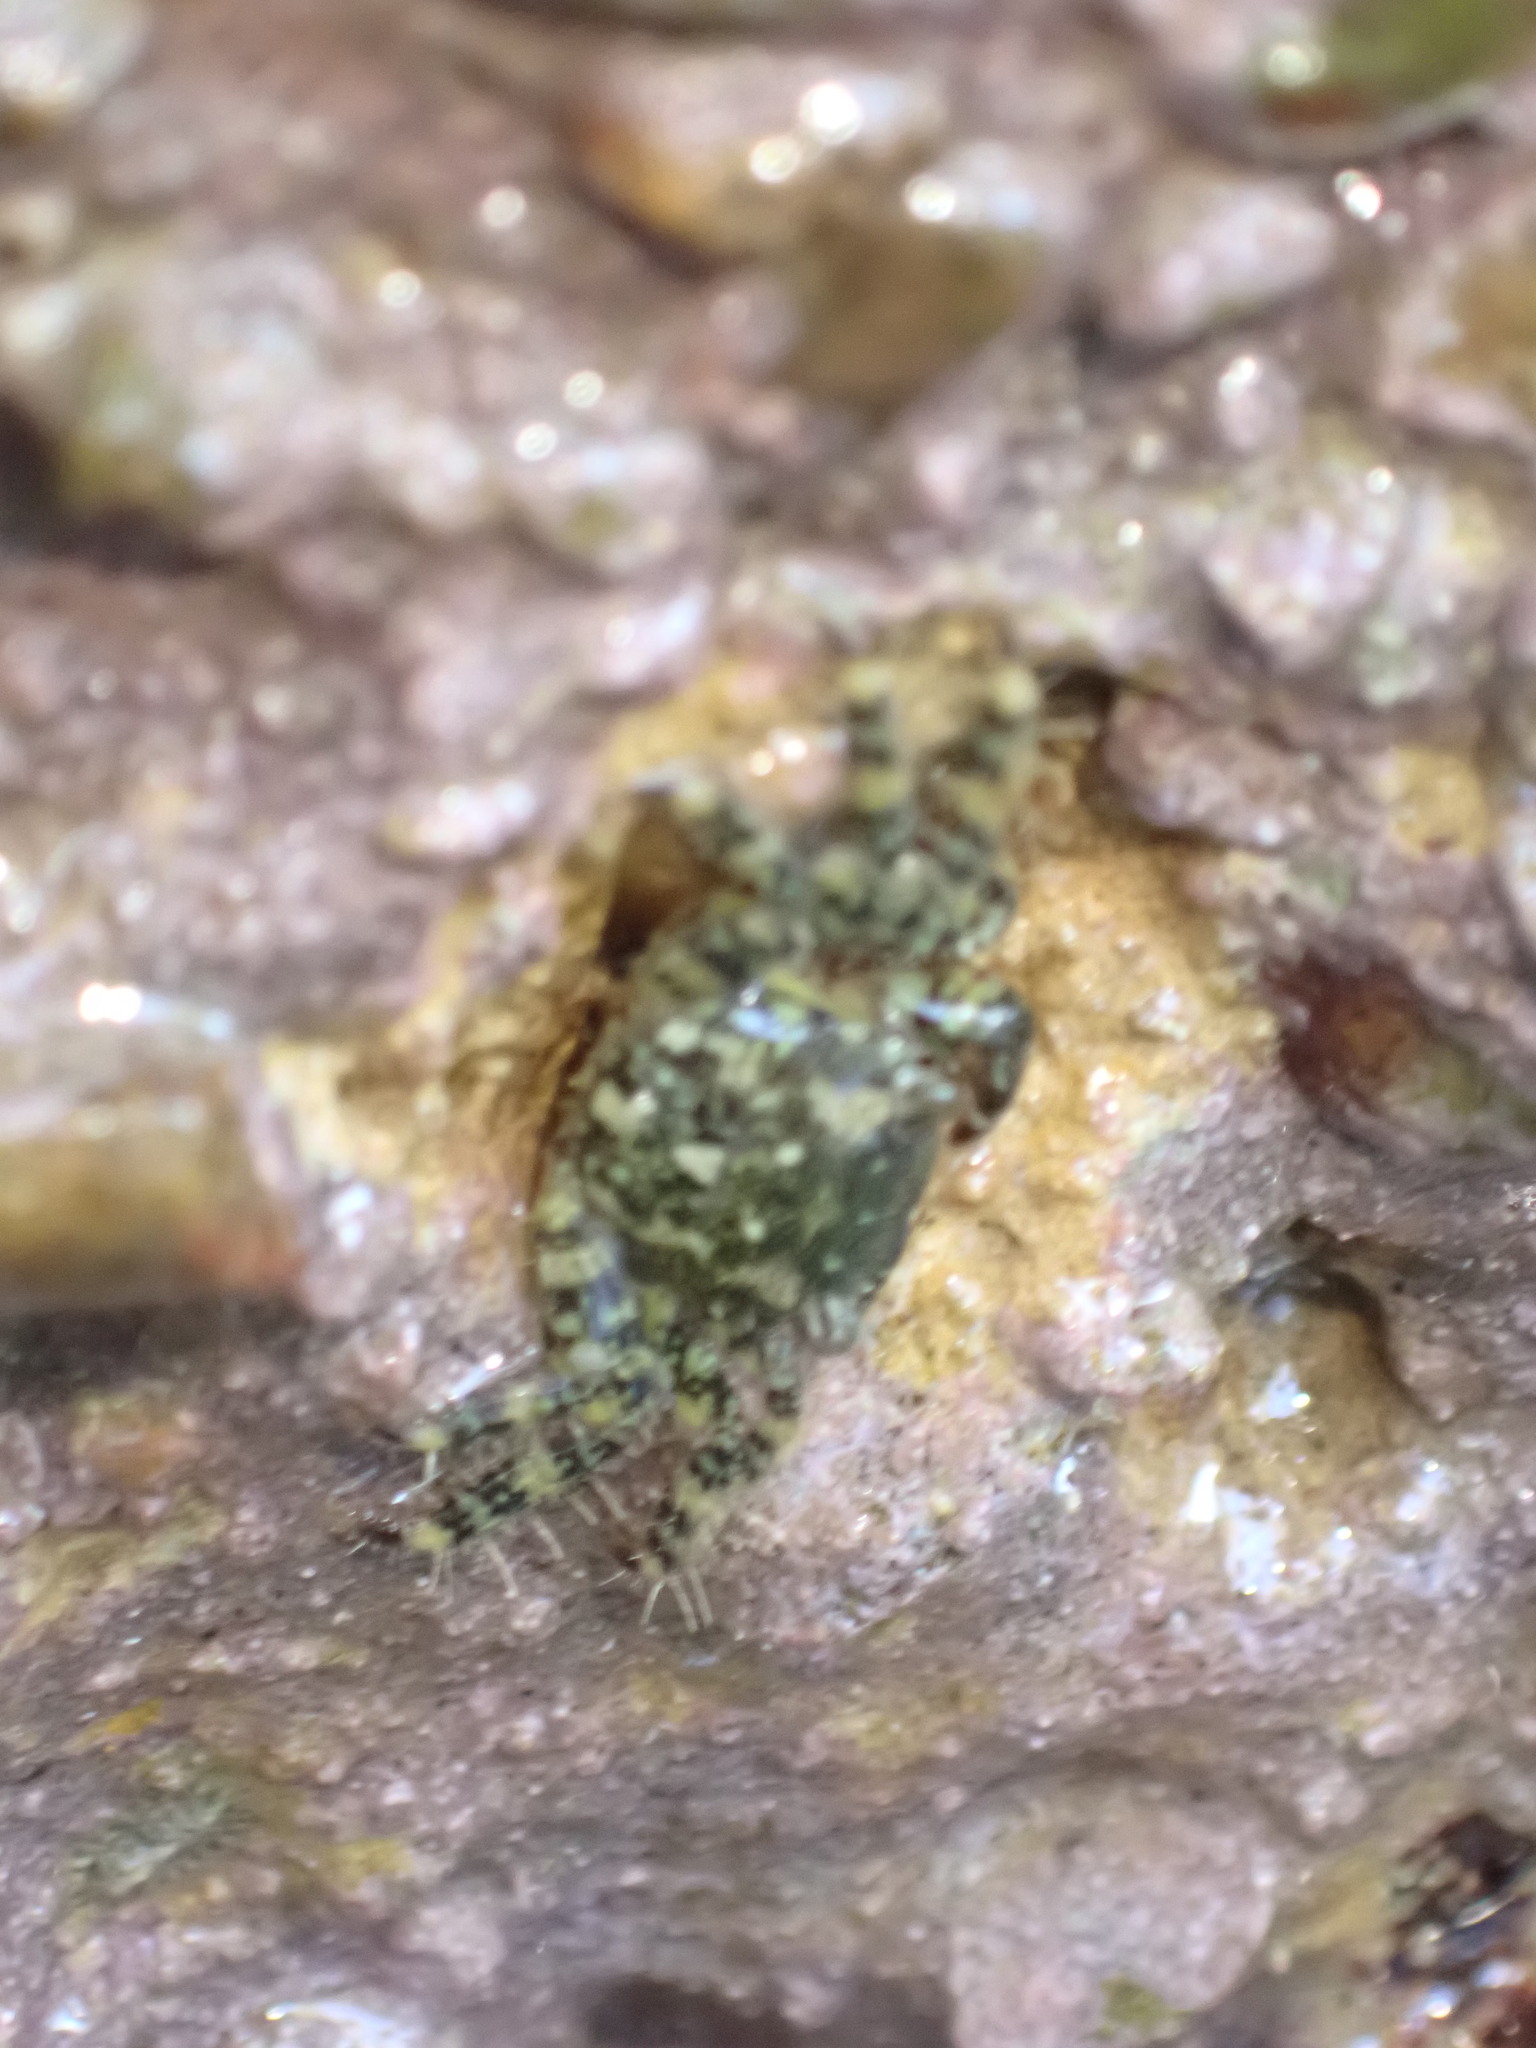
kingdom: Animalia
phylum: Arthropoda
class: Malacostraca
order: Decapoda
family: Grapsidae
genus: Pachygrapsus
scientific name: Pachygrapsus marmoratus
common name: Marbled rock crab
